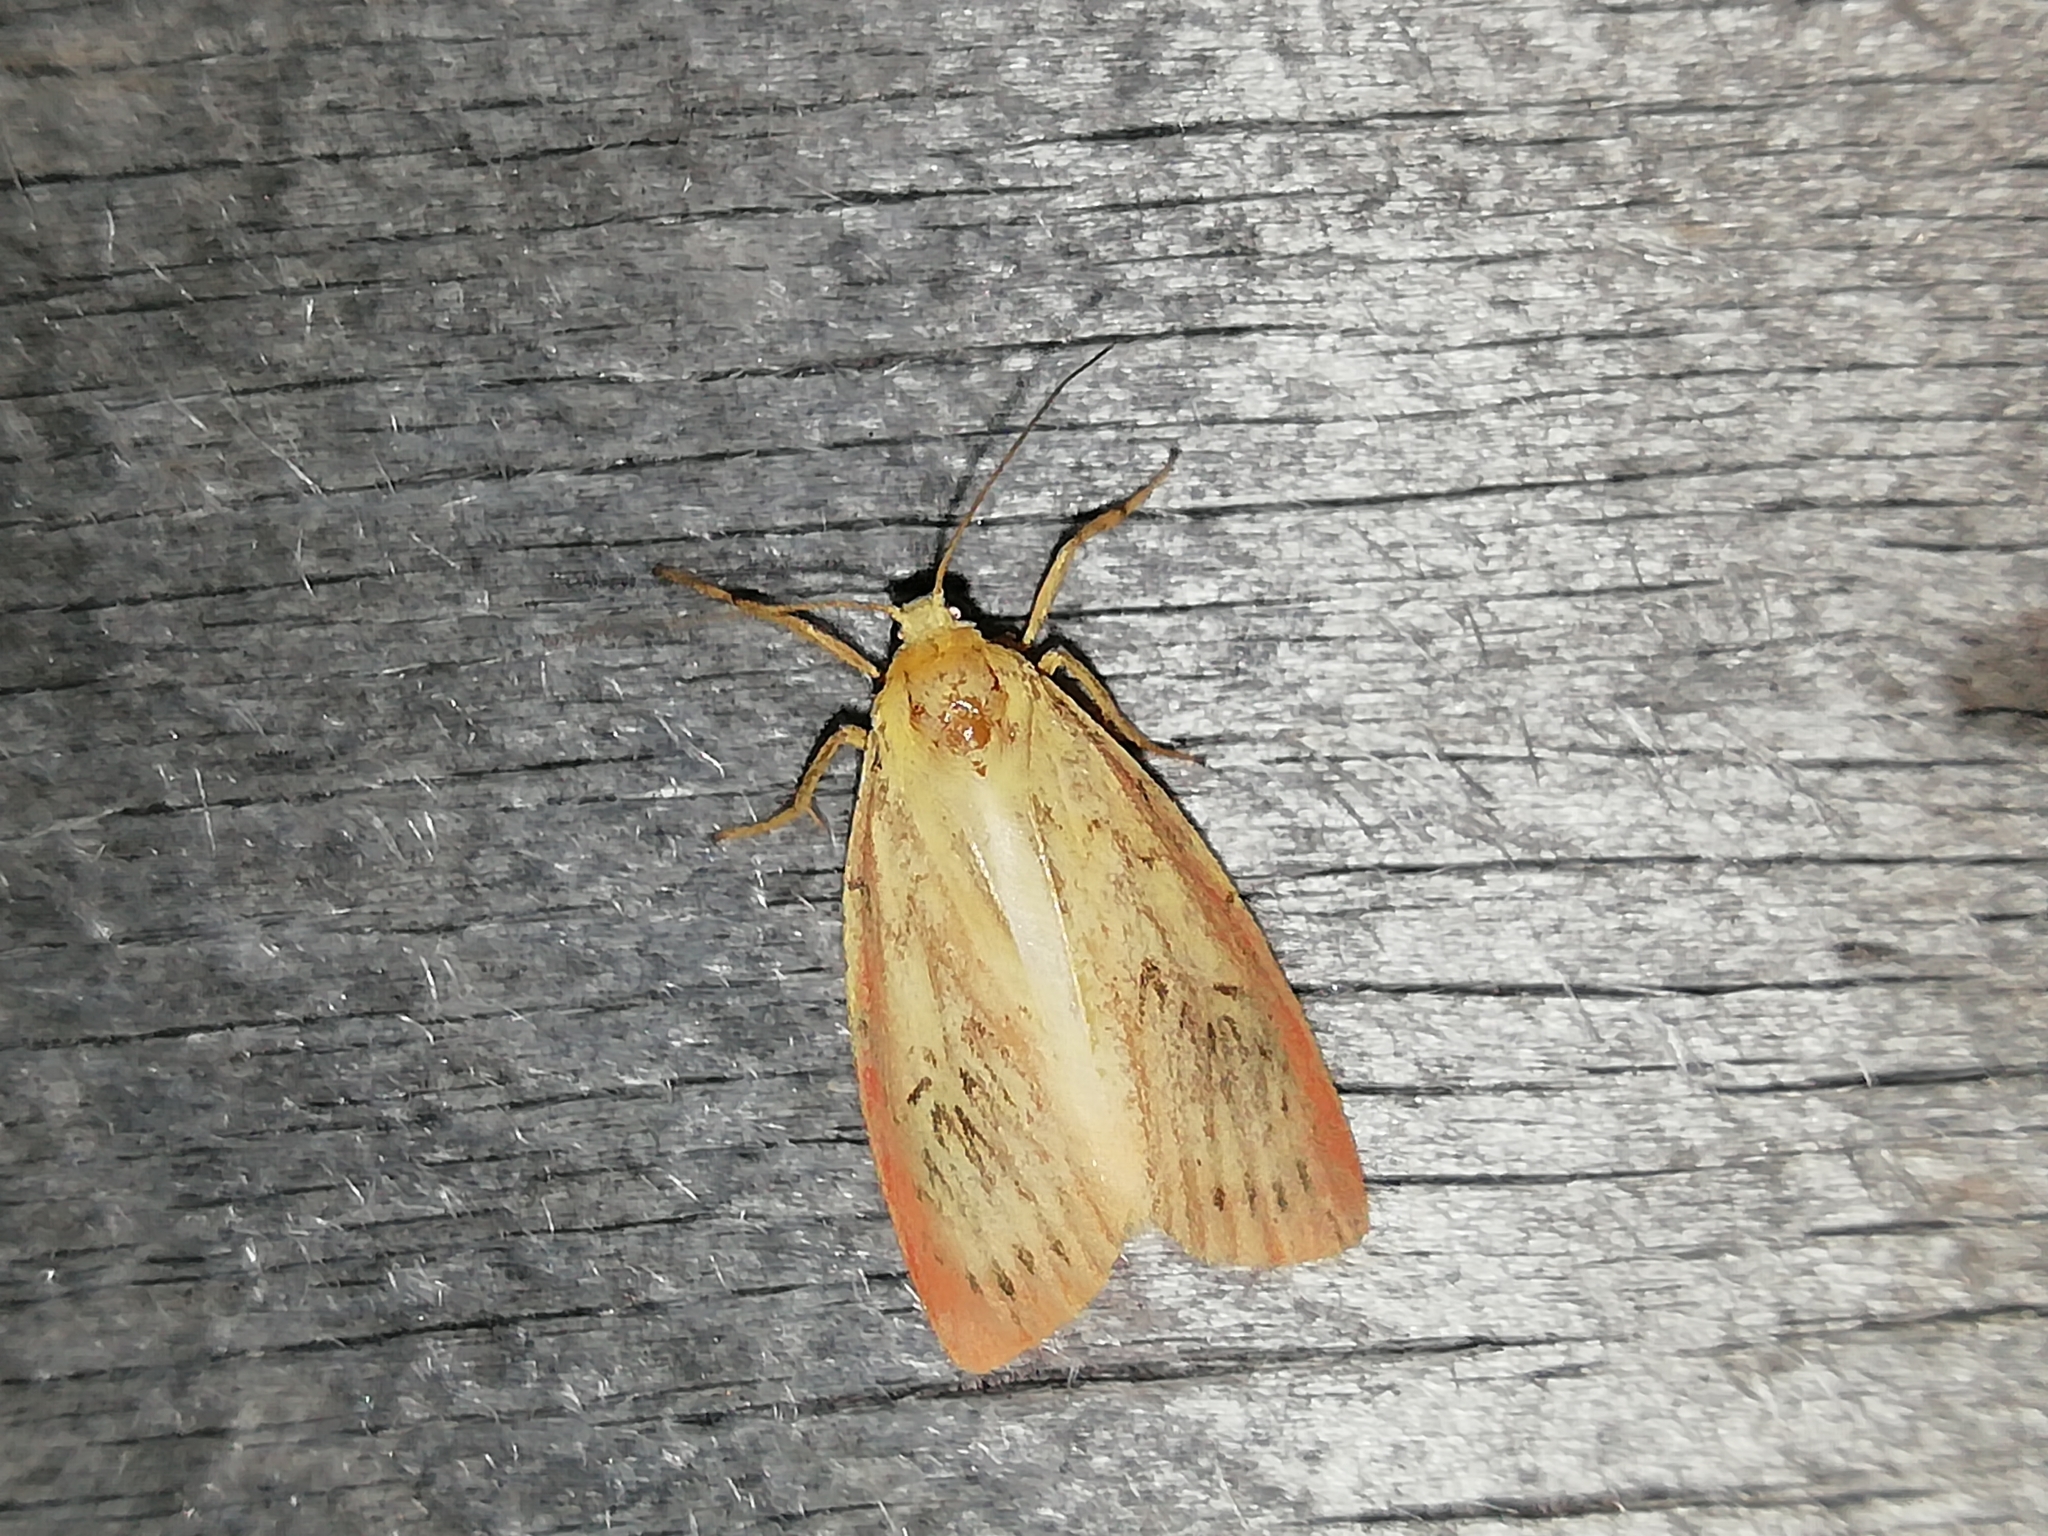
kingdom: Animalia
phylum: Arthropoda
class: Insecta
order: Lepidoptera
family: Erebidae
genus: Miltochrista
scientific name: Miltochrista miniata
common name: Rosy footman
